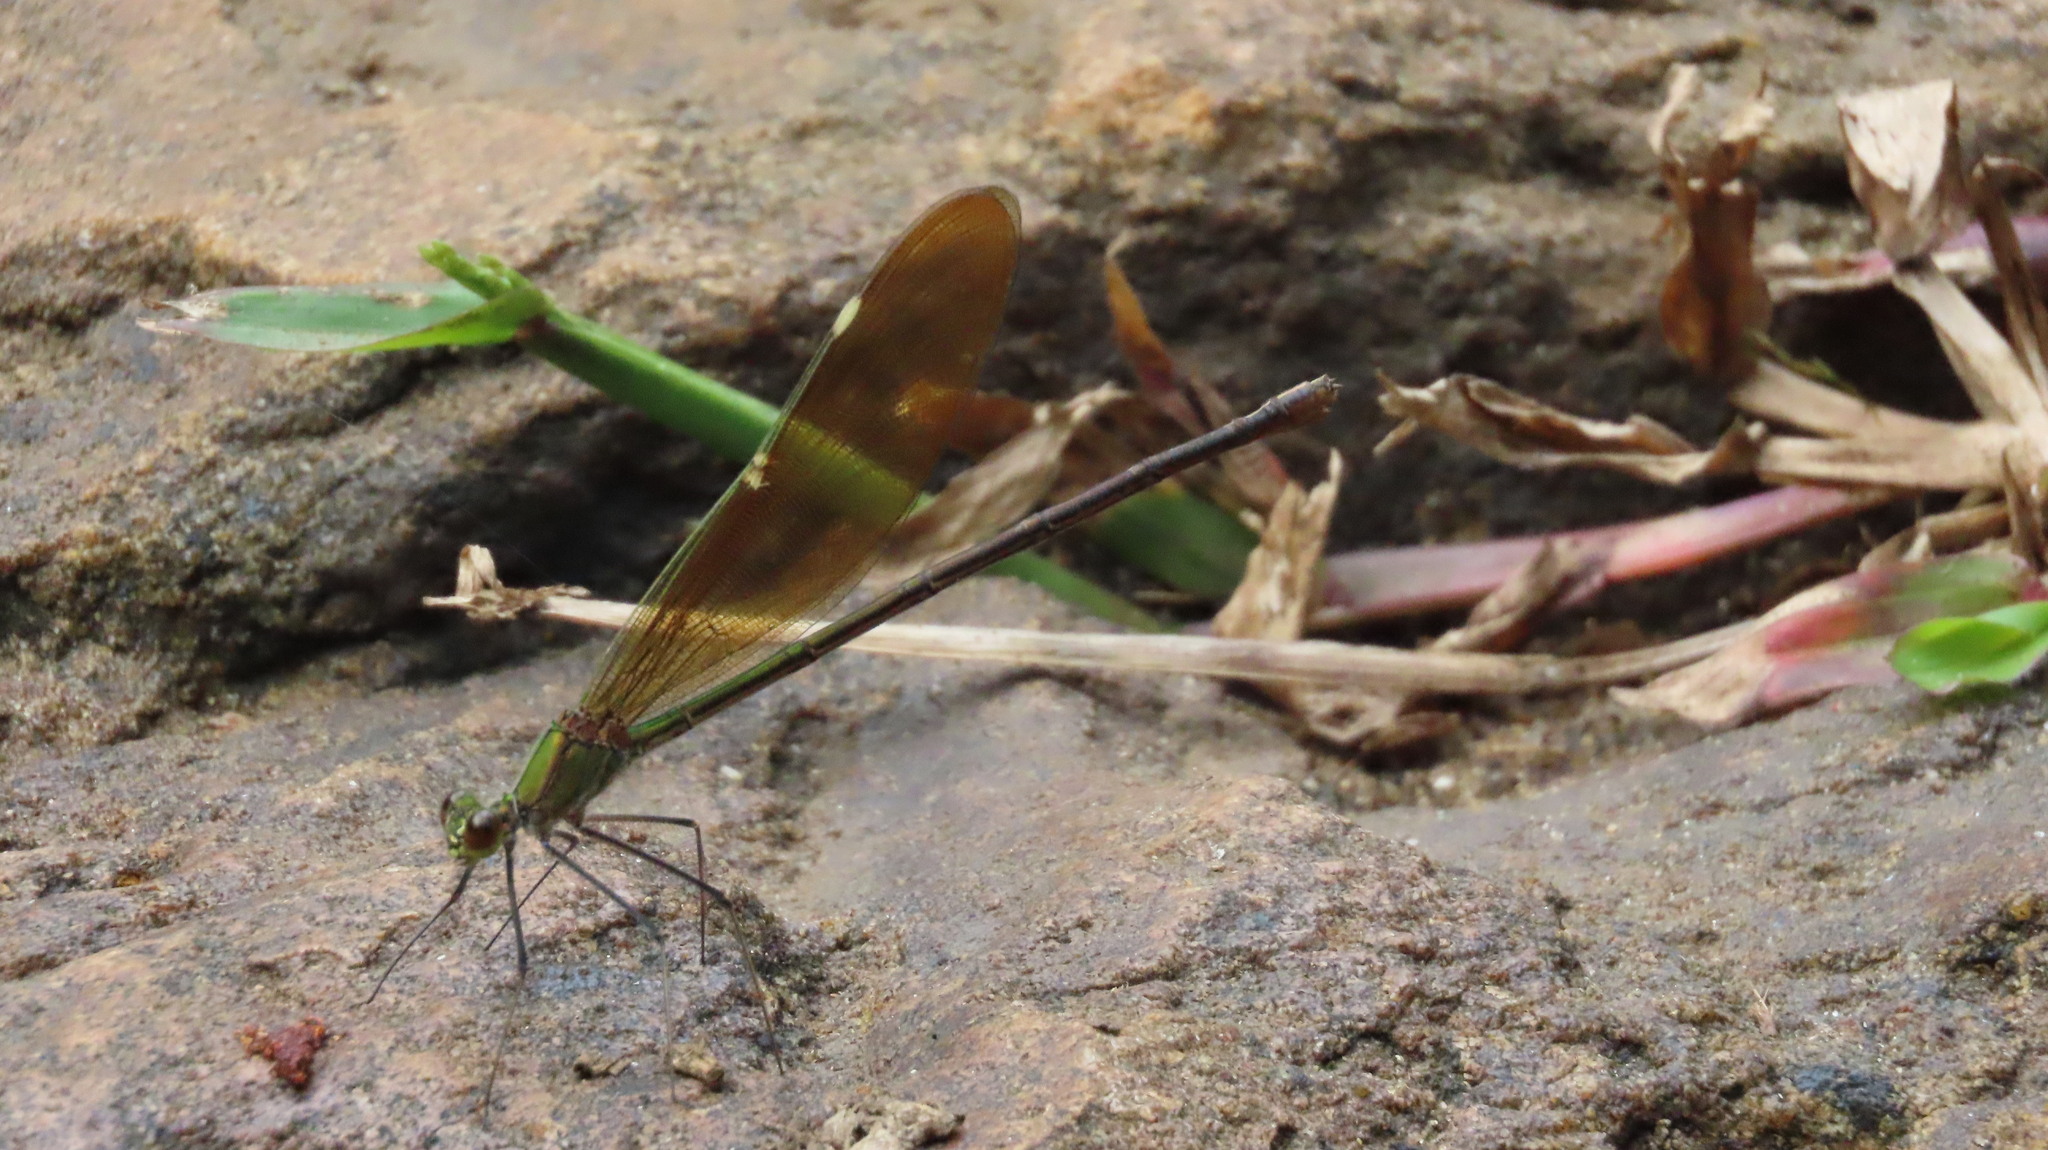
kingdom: Animalia
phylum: Arthropoda
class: Insecta
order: Odonata
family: Calopterygidae
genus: Neurobasis
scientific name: Neurobasis chinensis
